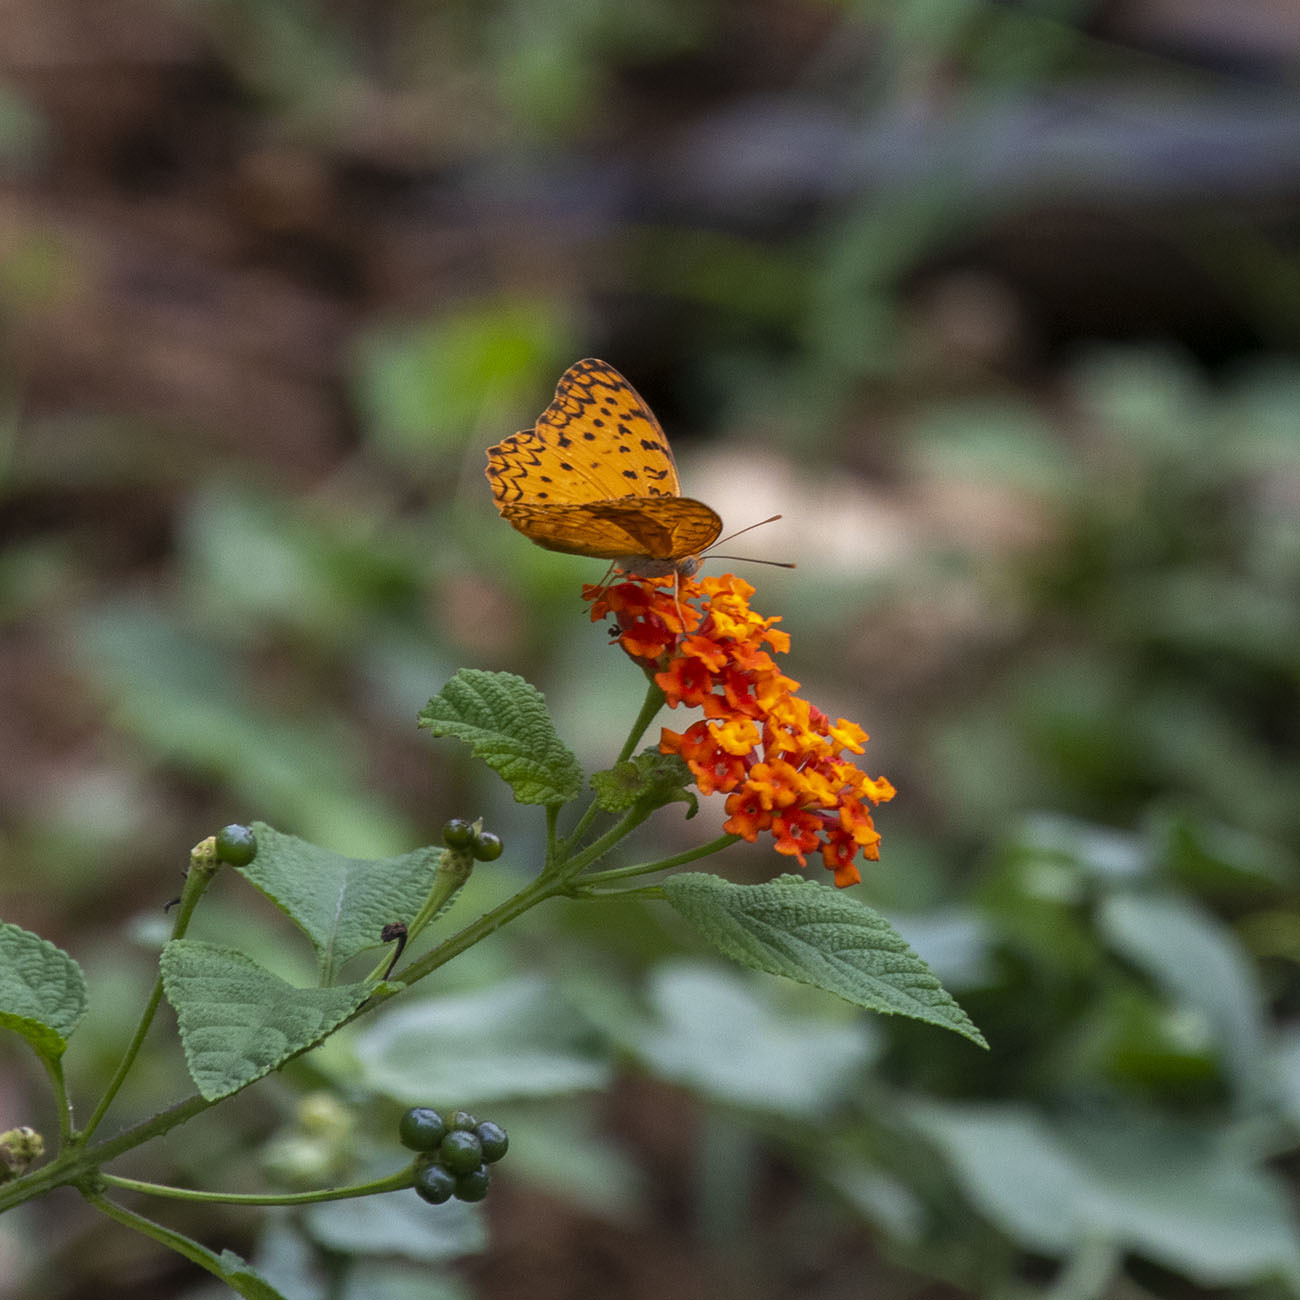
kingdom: Animalia
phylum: Arthropoda
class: Insecta
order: Lepidoptera
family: Nymphalidae
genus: Phalanta
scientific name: Phalanta phalantha
